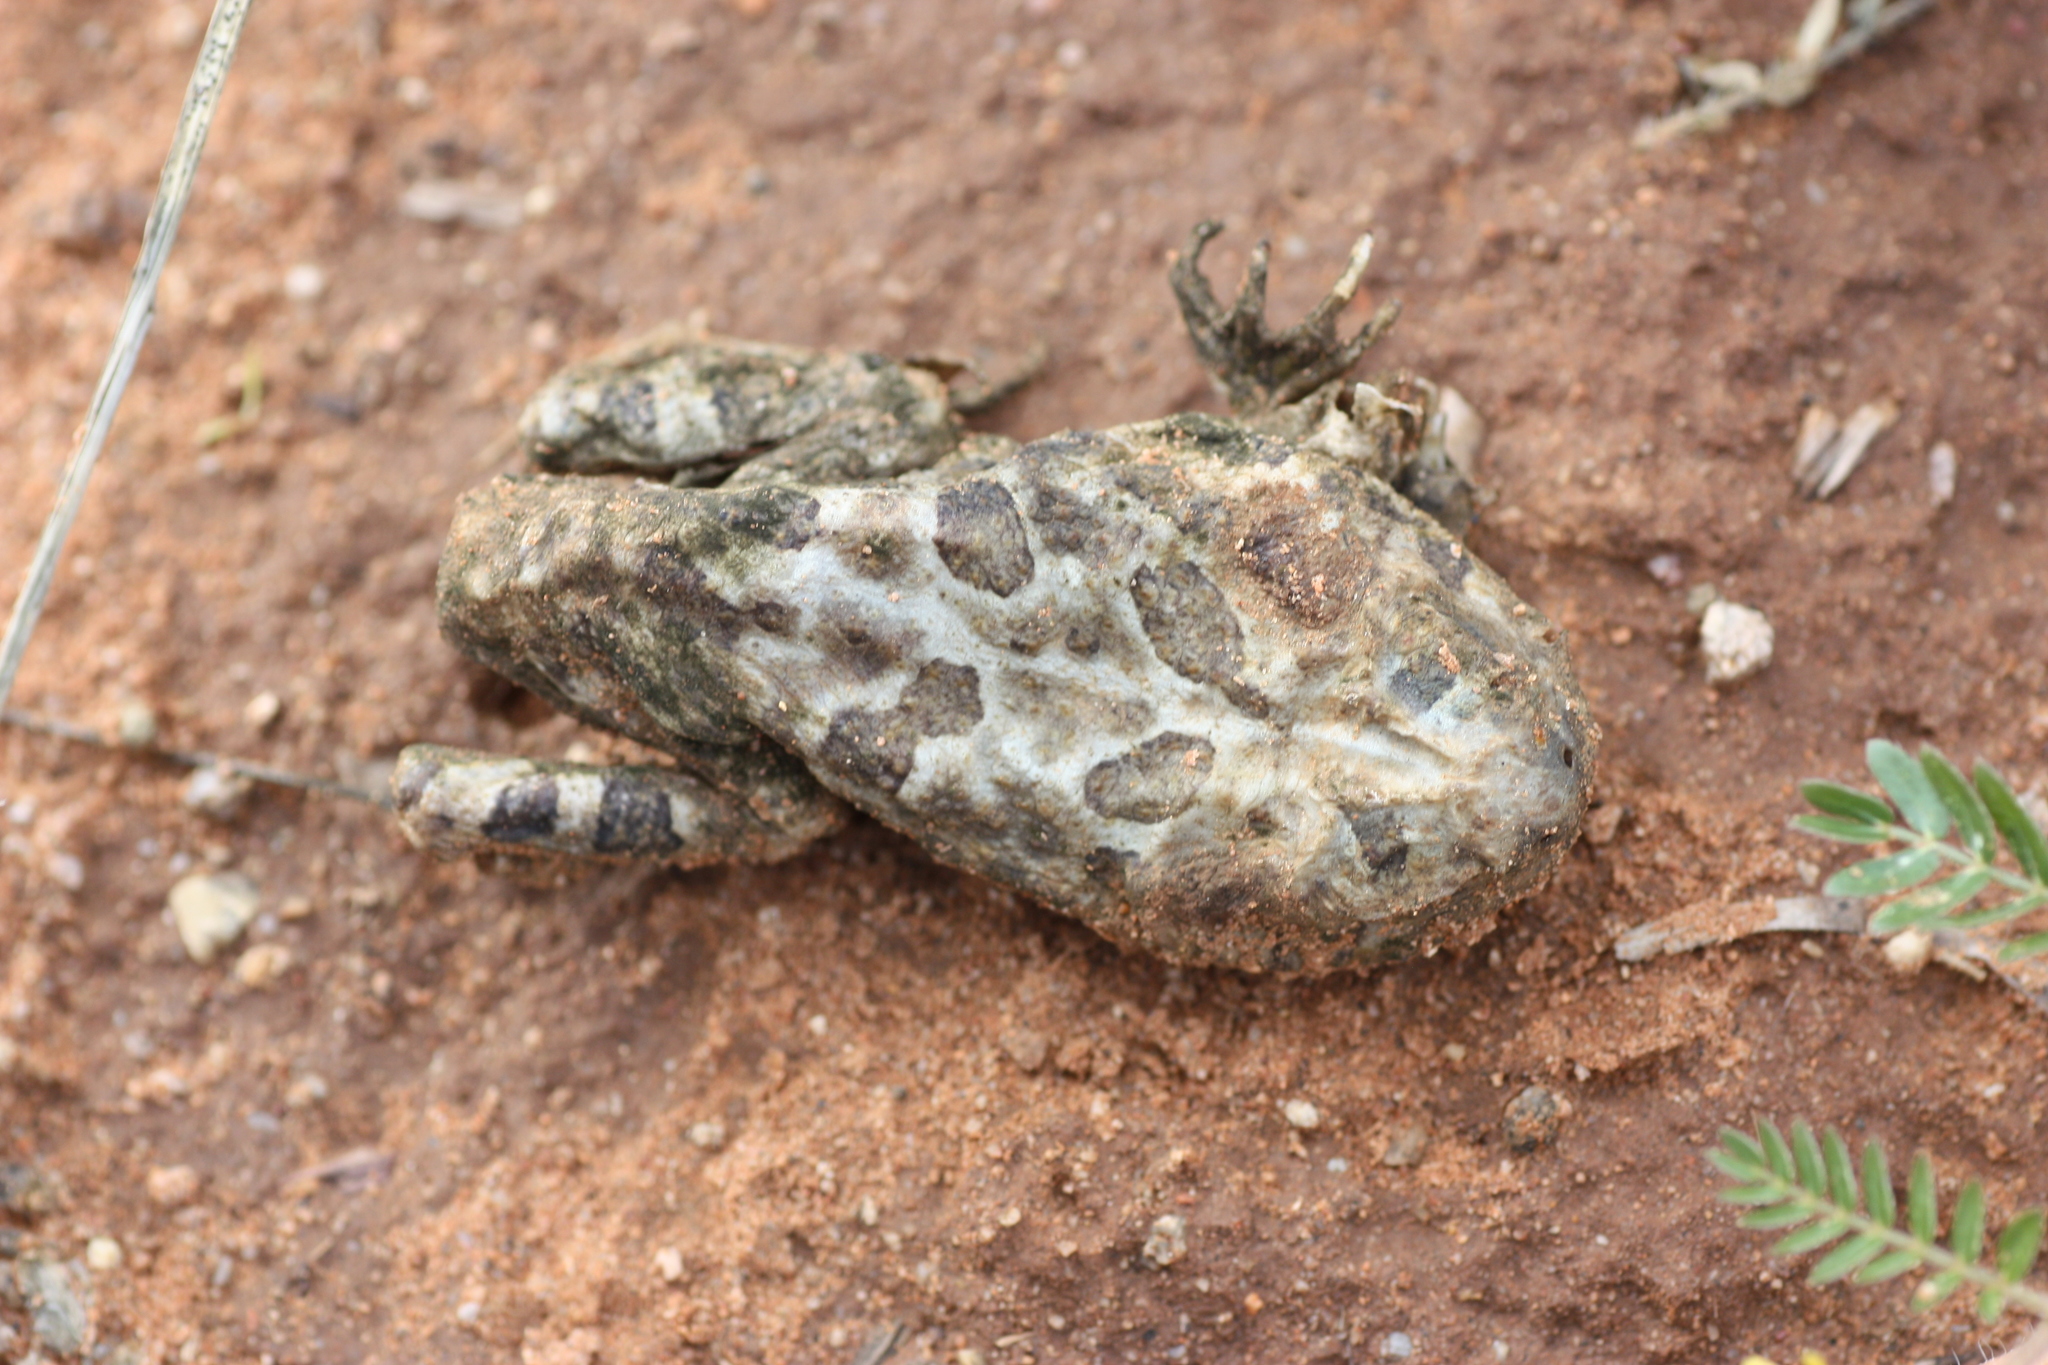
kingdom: Animalia
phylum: Chordata
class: Amphibia
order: Anura
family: Bufonidae
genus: Anaxyrus
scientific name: Anaxyrus cognatus
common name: Great plains toad
